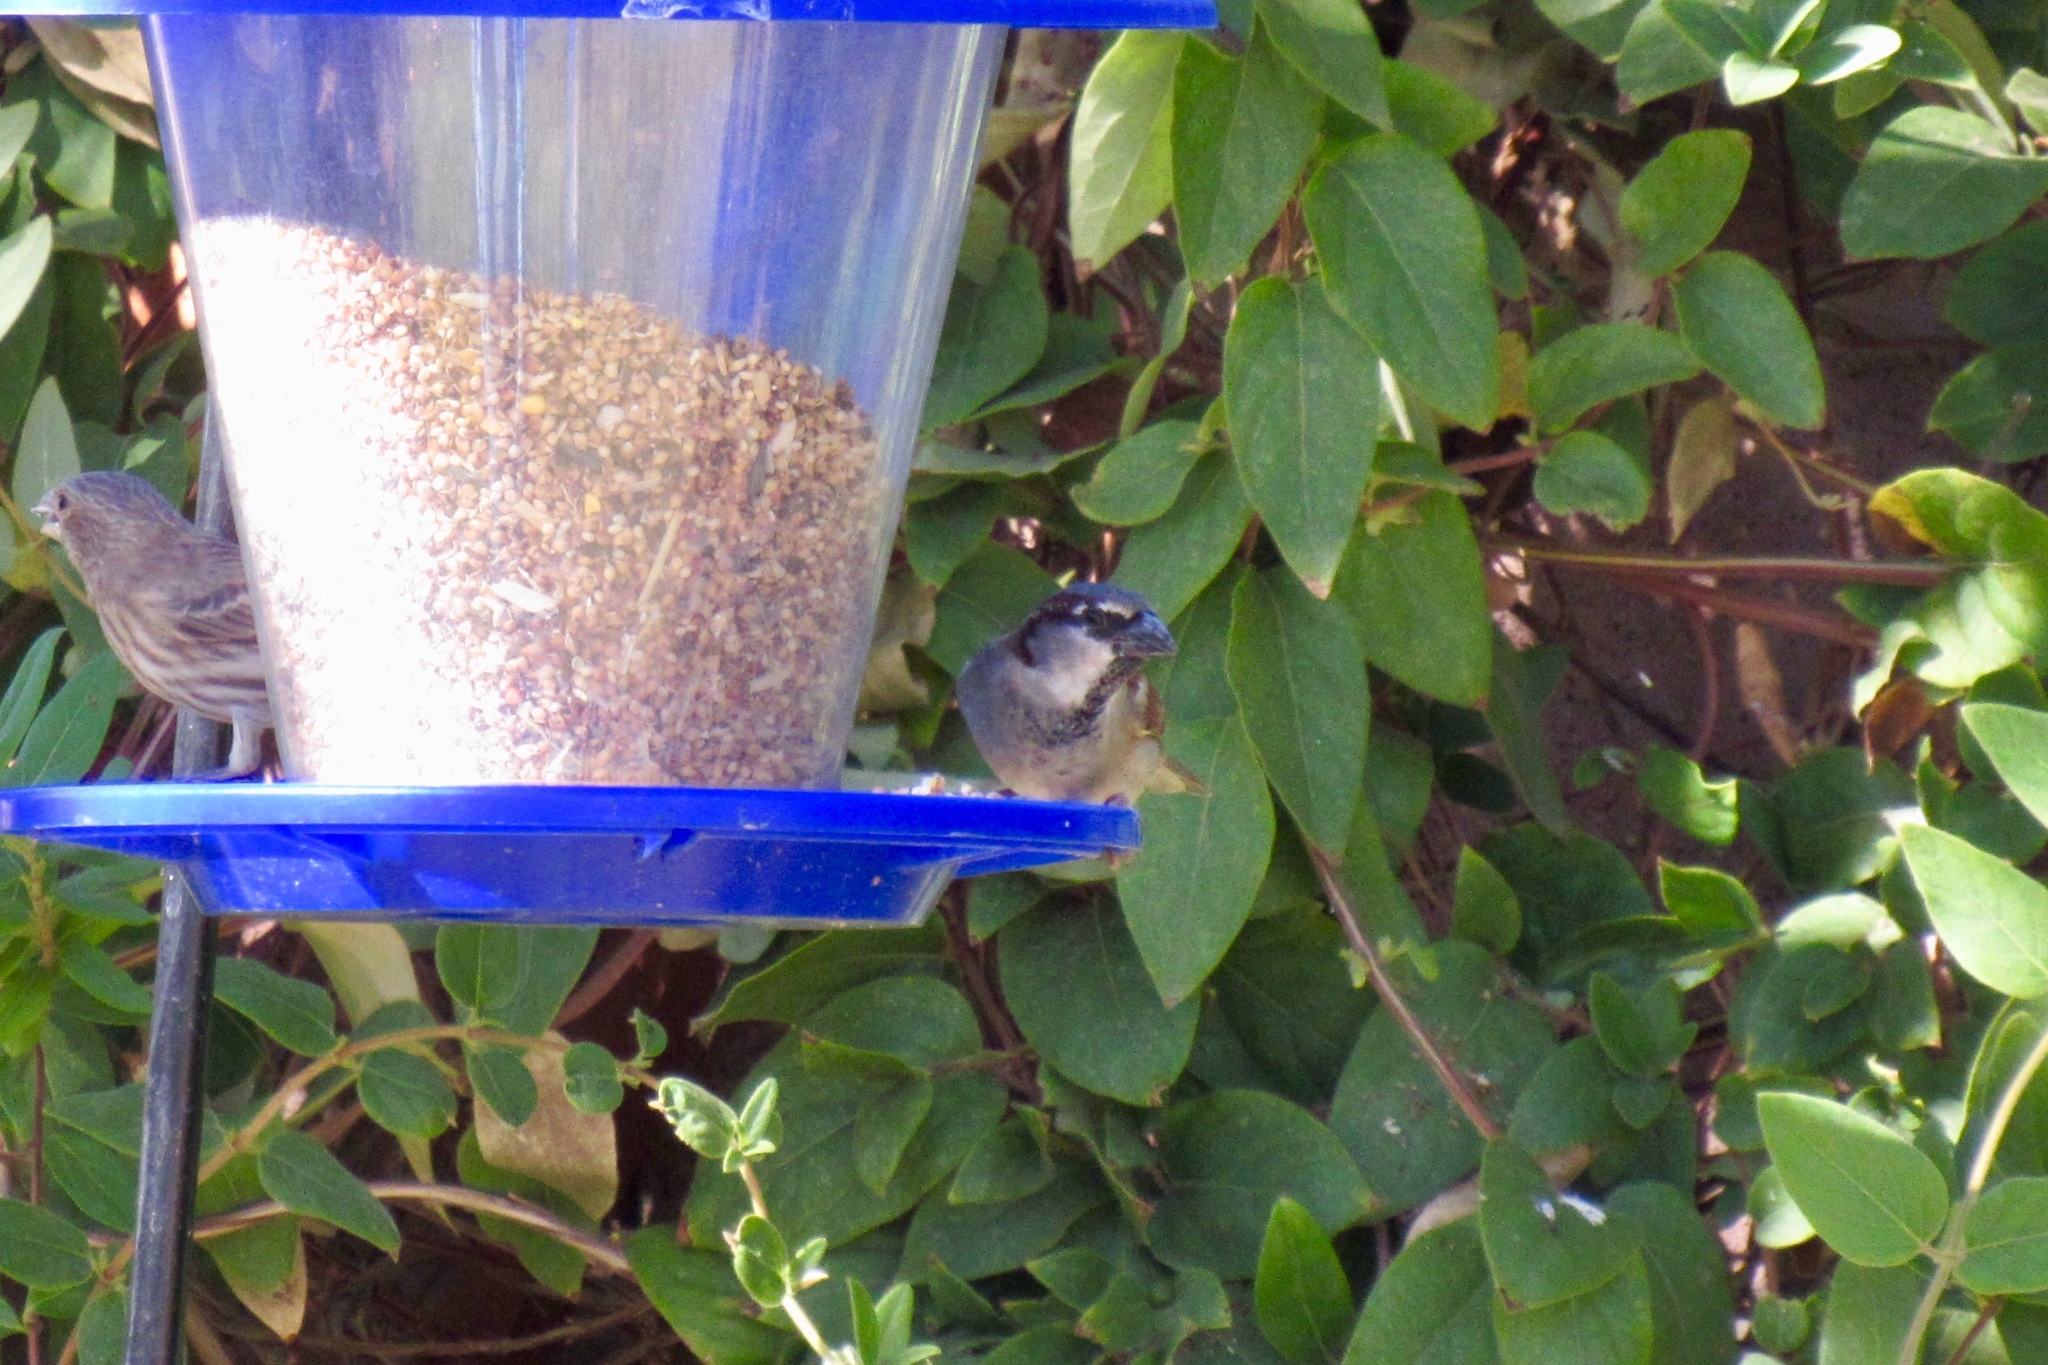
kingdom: Animalia
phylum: Chordata
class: Aves
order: Passeriformes
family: Passeridae
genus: Passer
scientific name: Passer domesticus
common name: House sparrow
